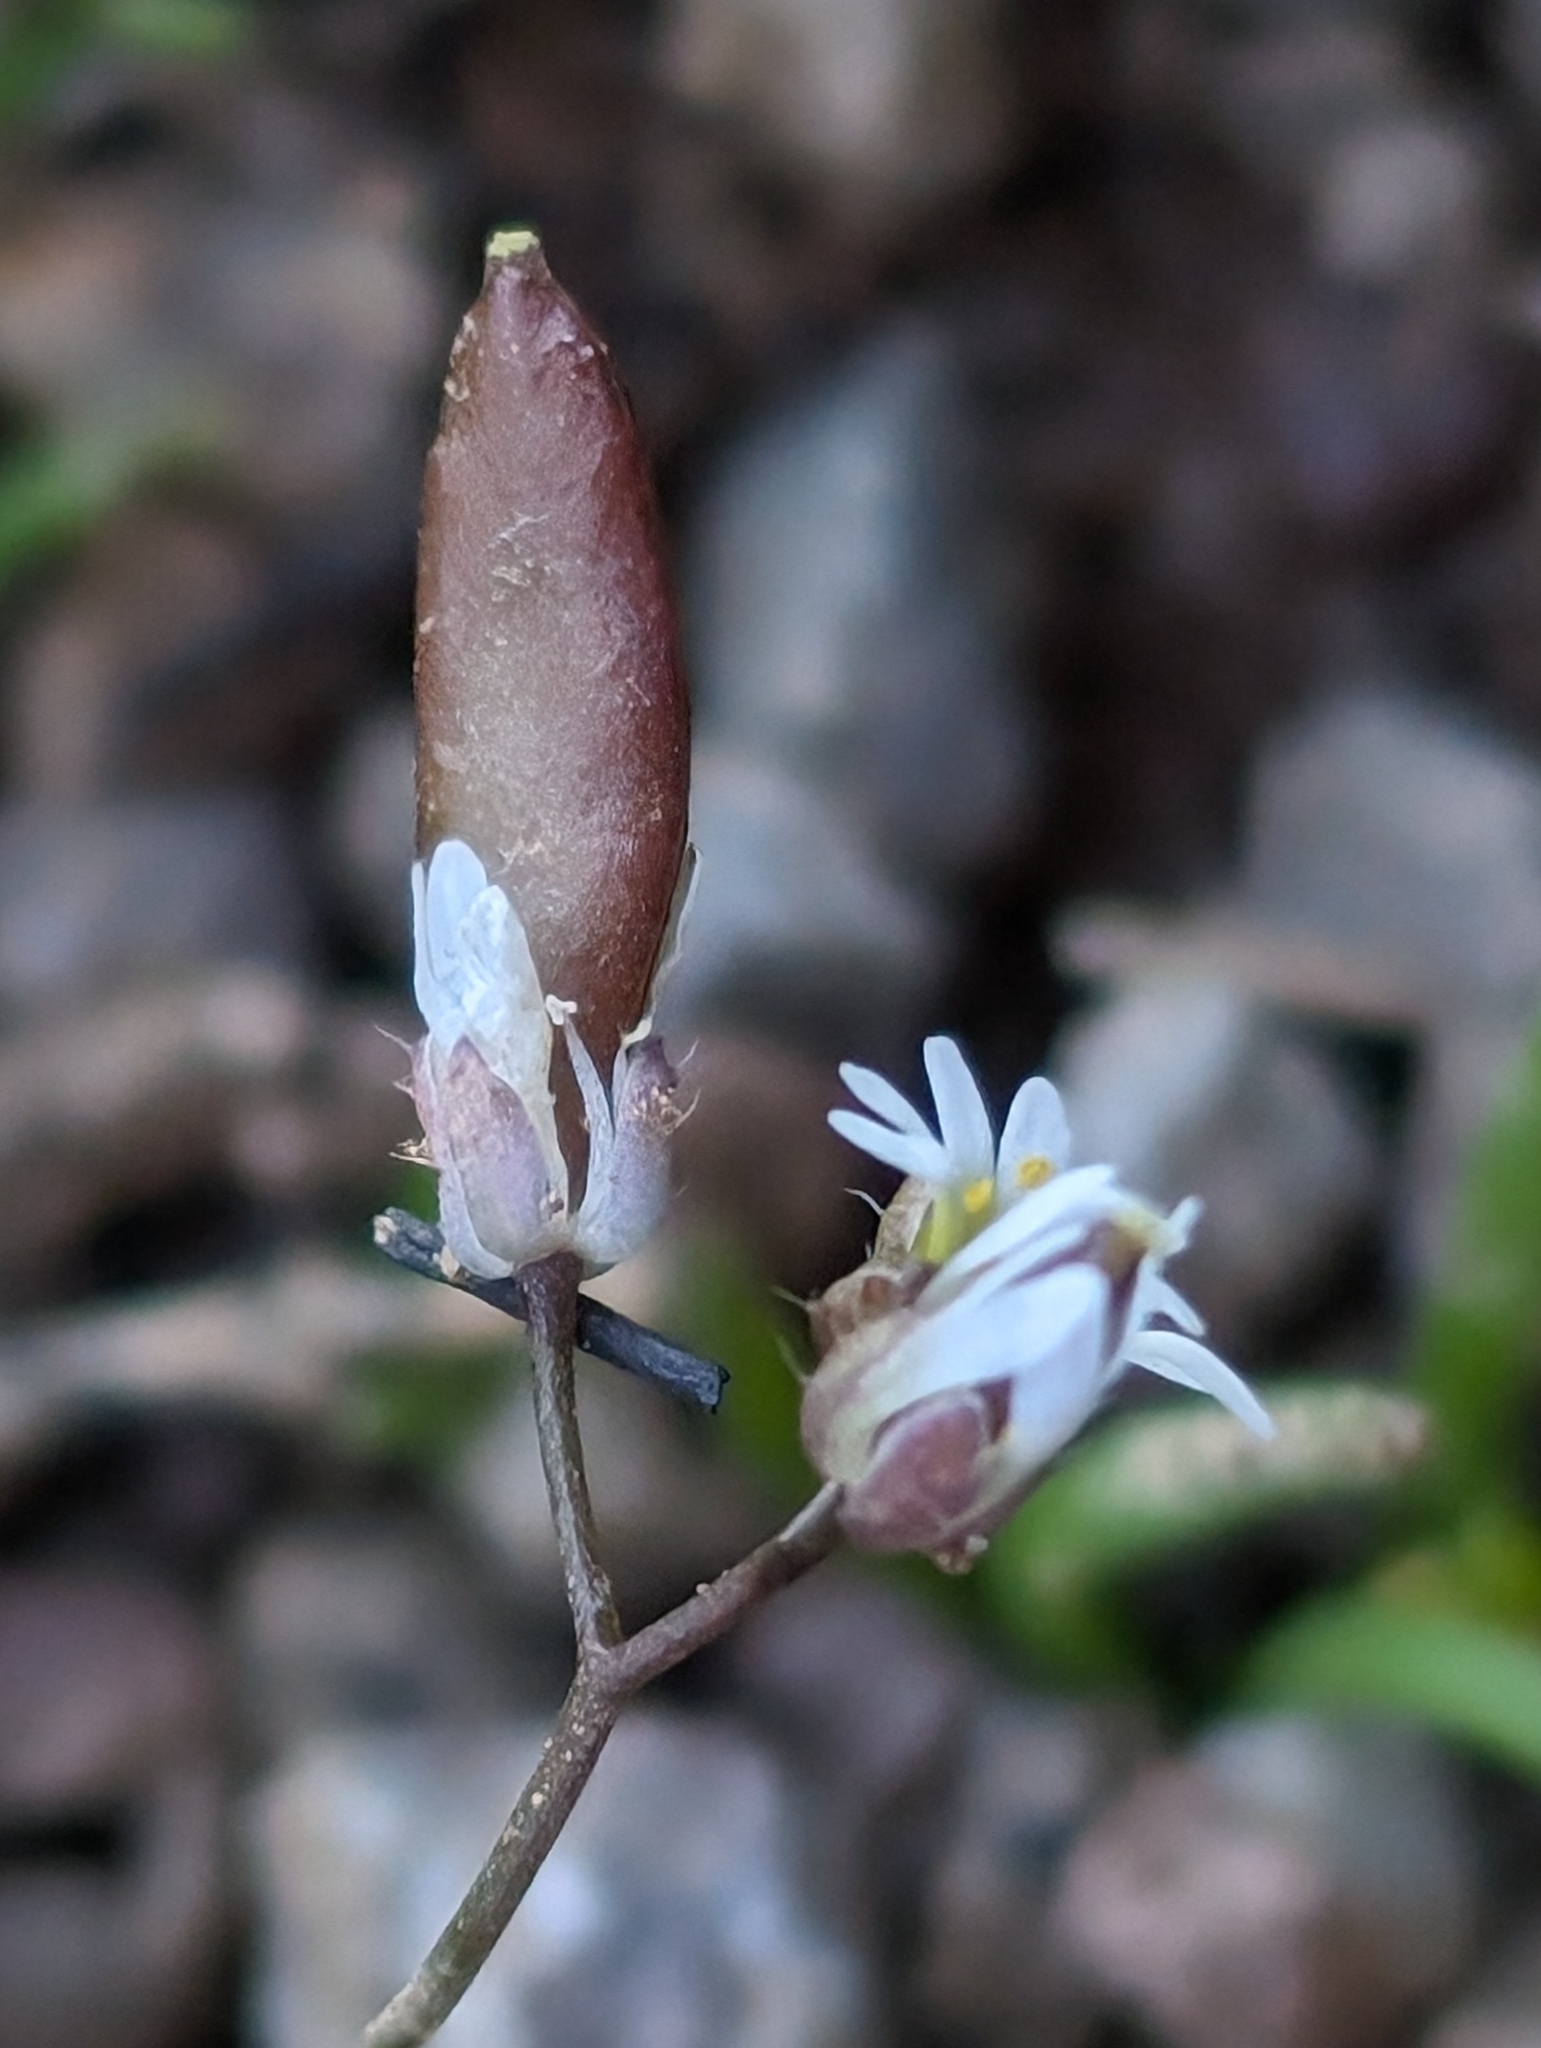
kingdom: Plantae
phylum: Tracheophyta
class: Magnoliopsida
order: Brassicales
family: Brassicaceae
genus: Draba
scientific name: Draba verna
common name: Spring draba
